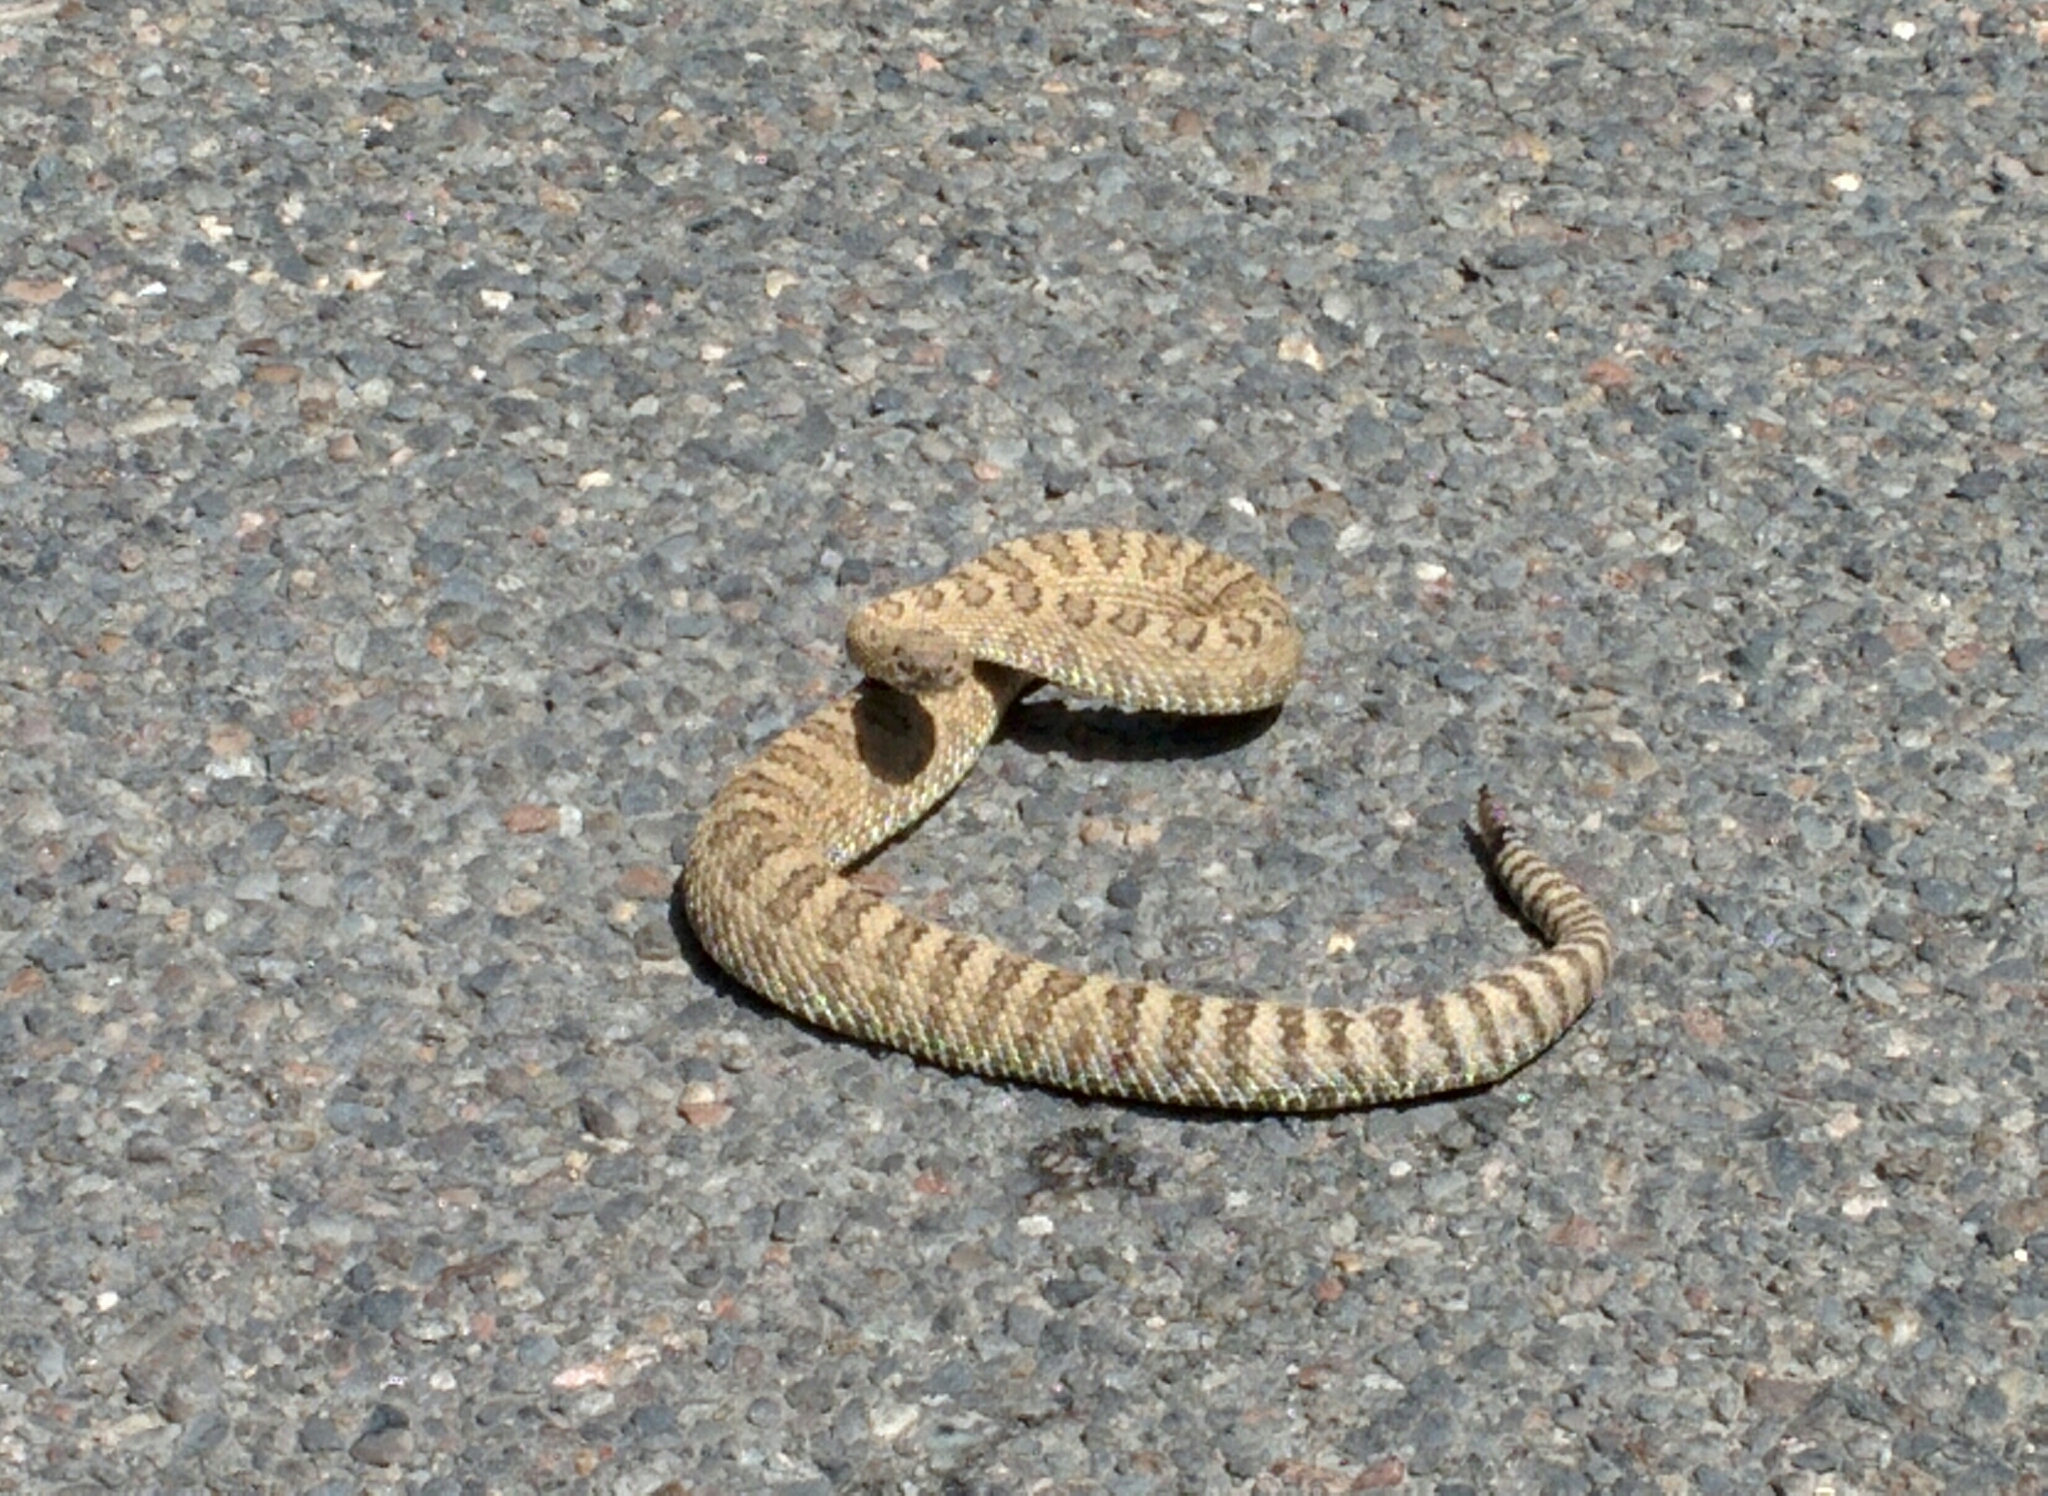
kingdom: Animalia
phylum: Chordata
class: Squamata
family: Viperidae
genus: Crotalus
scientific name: Crotalus oreganus
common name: Abyssus
